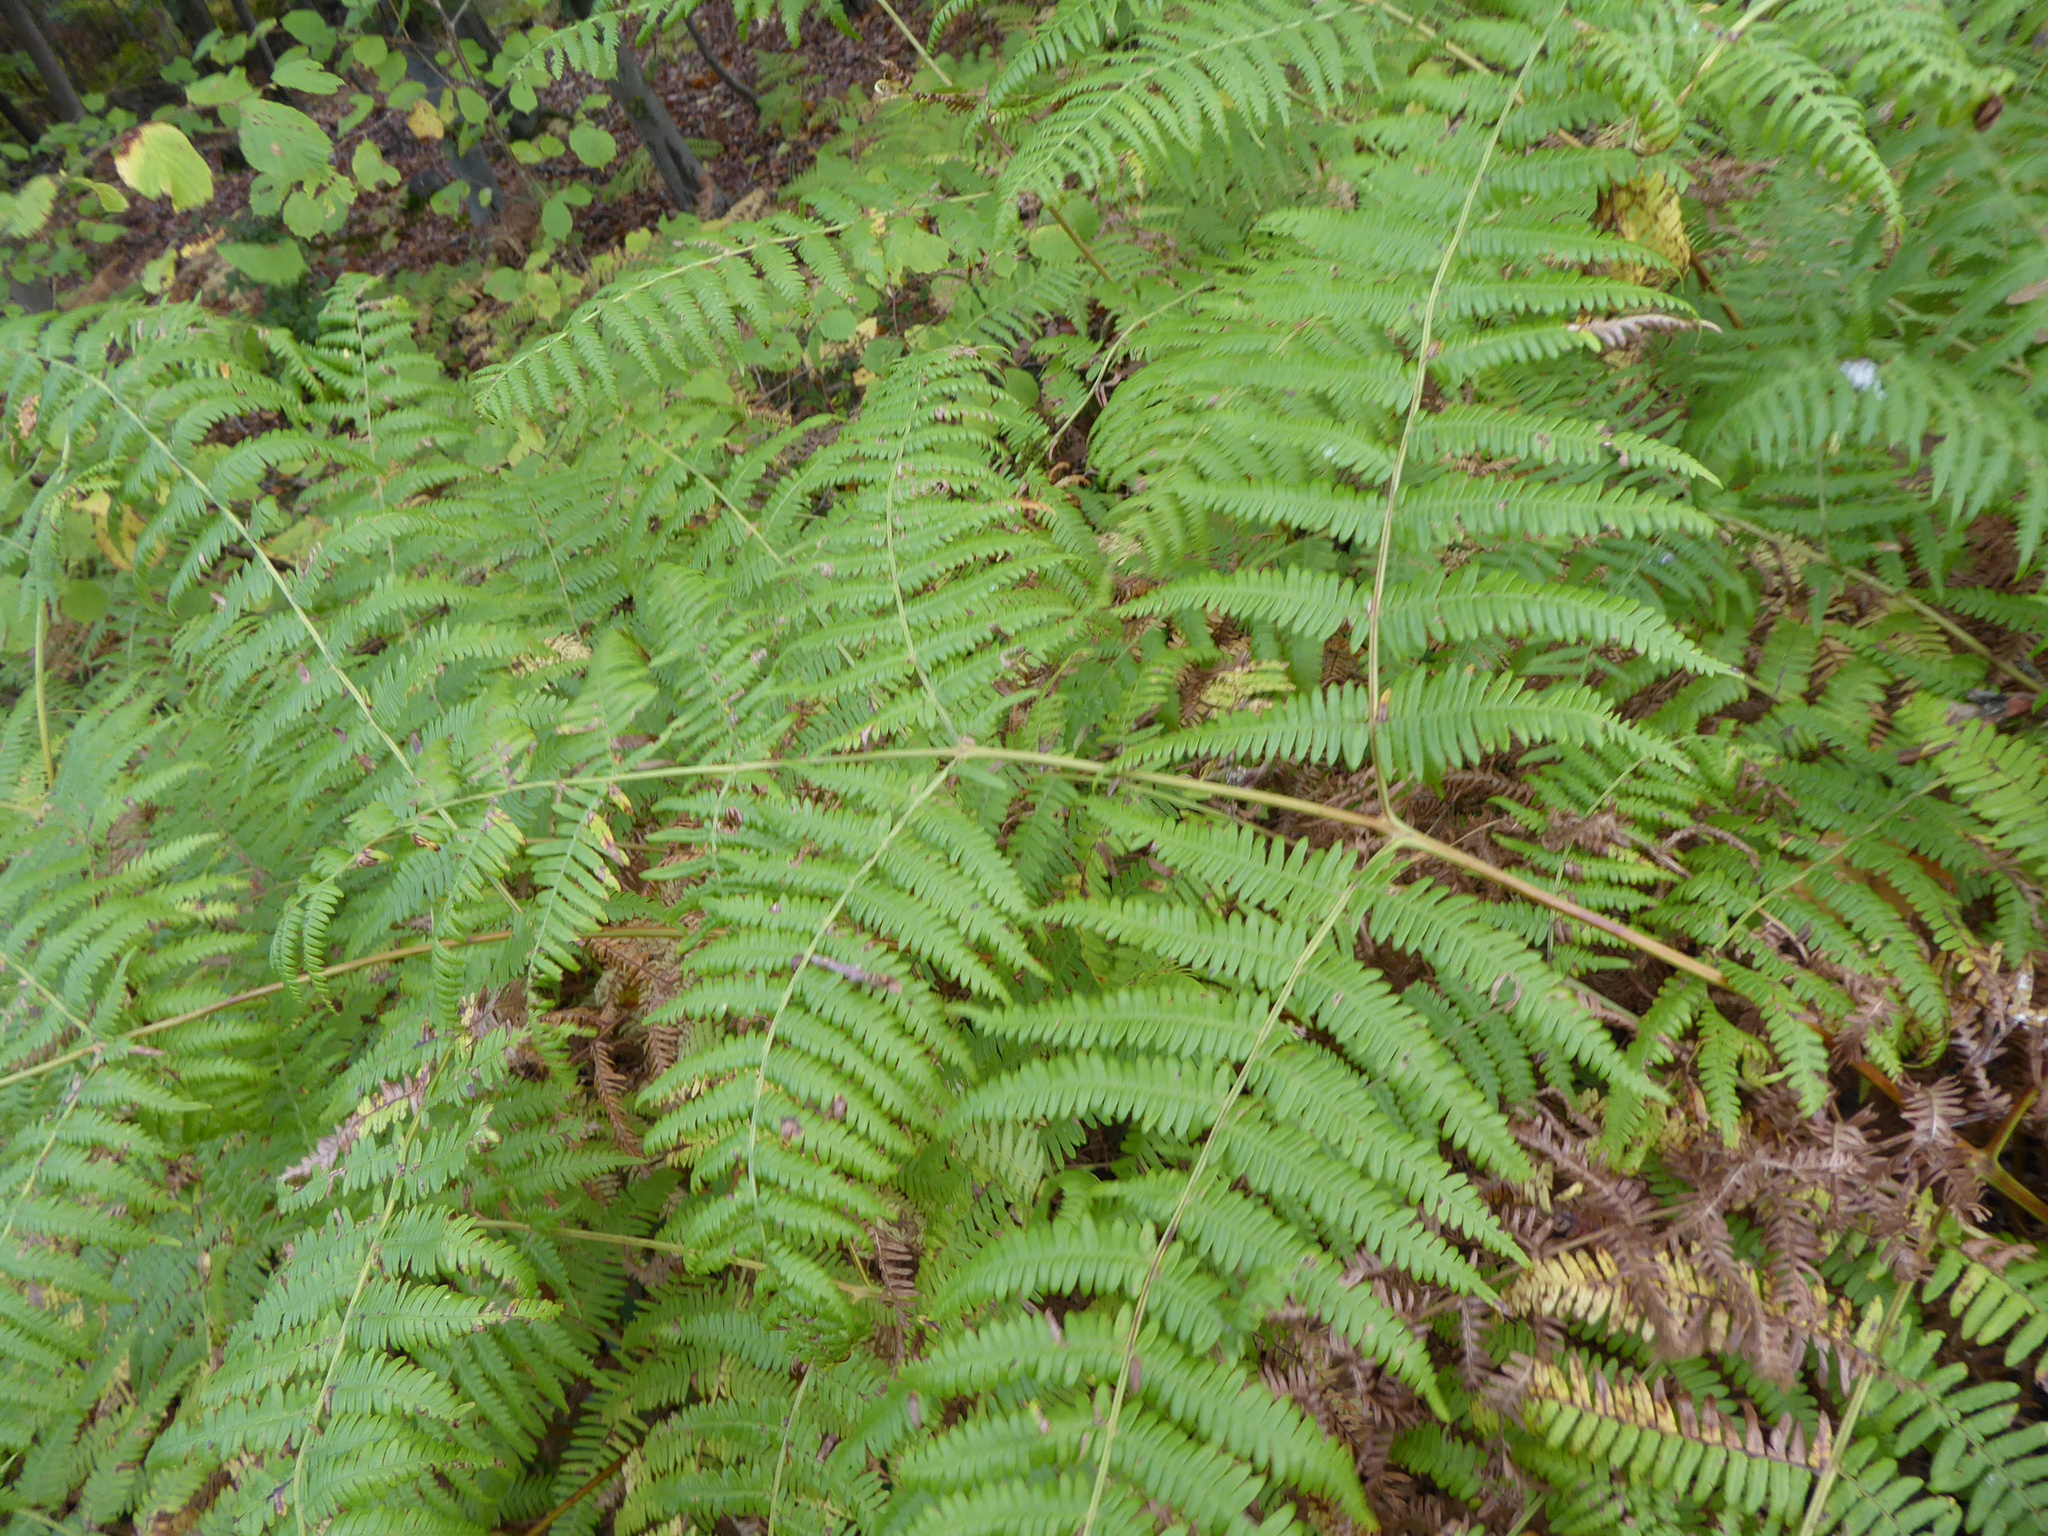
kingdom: Plantae
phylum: Tracheophyta
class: Polypodiopsida
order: Polypodiales
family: Dennstaedtiaceae
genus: Pteridium
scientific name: Pteridium aquilinum
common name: Bracken
